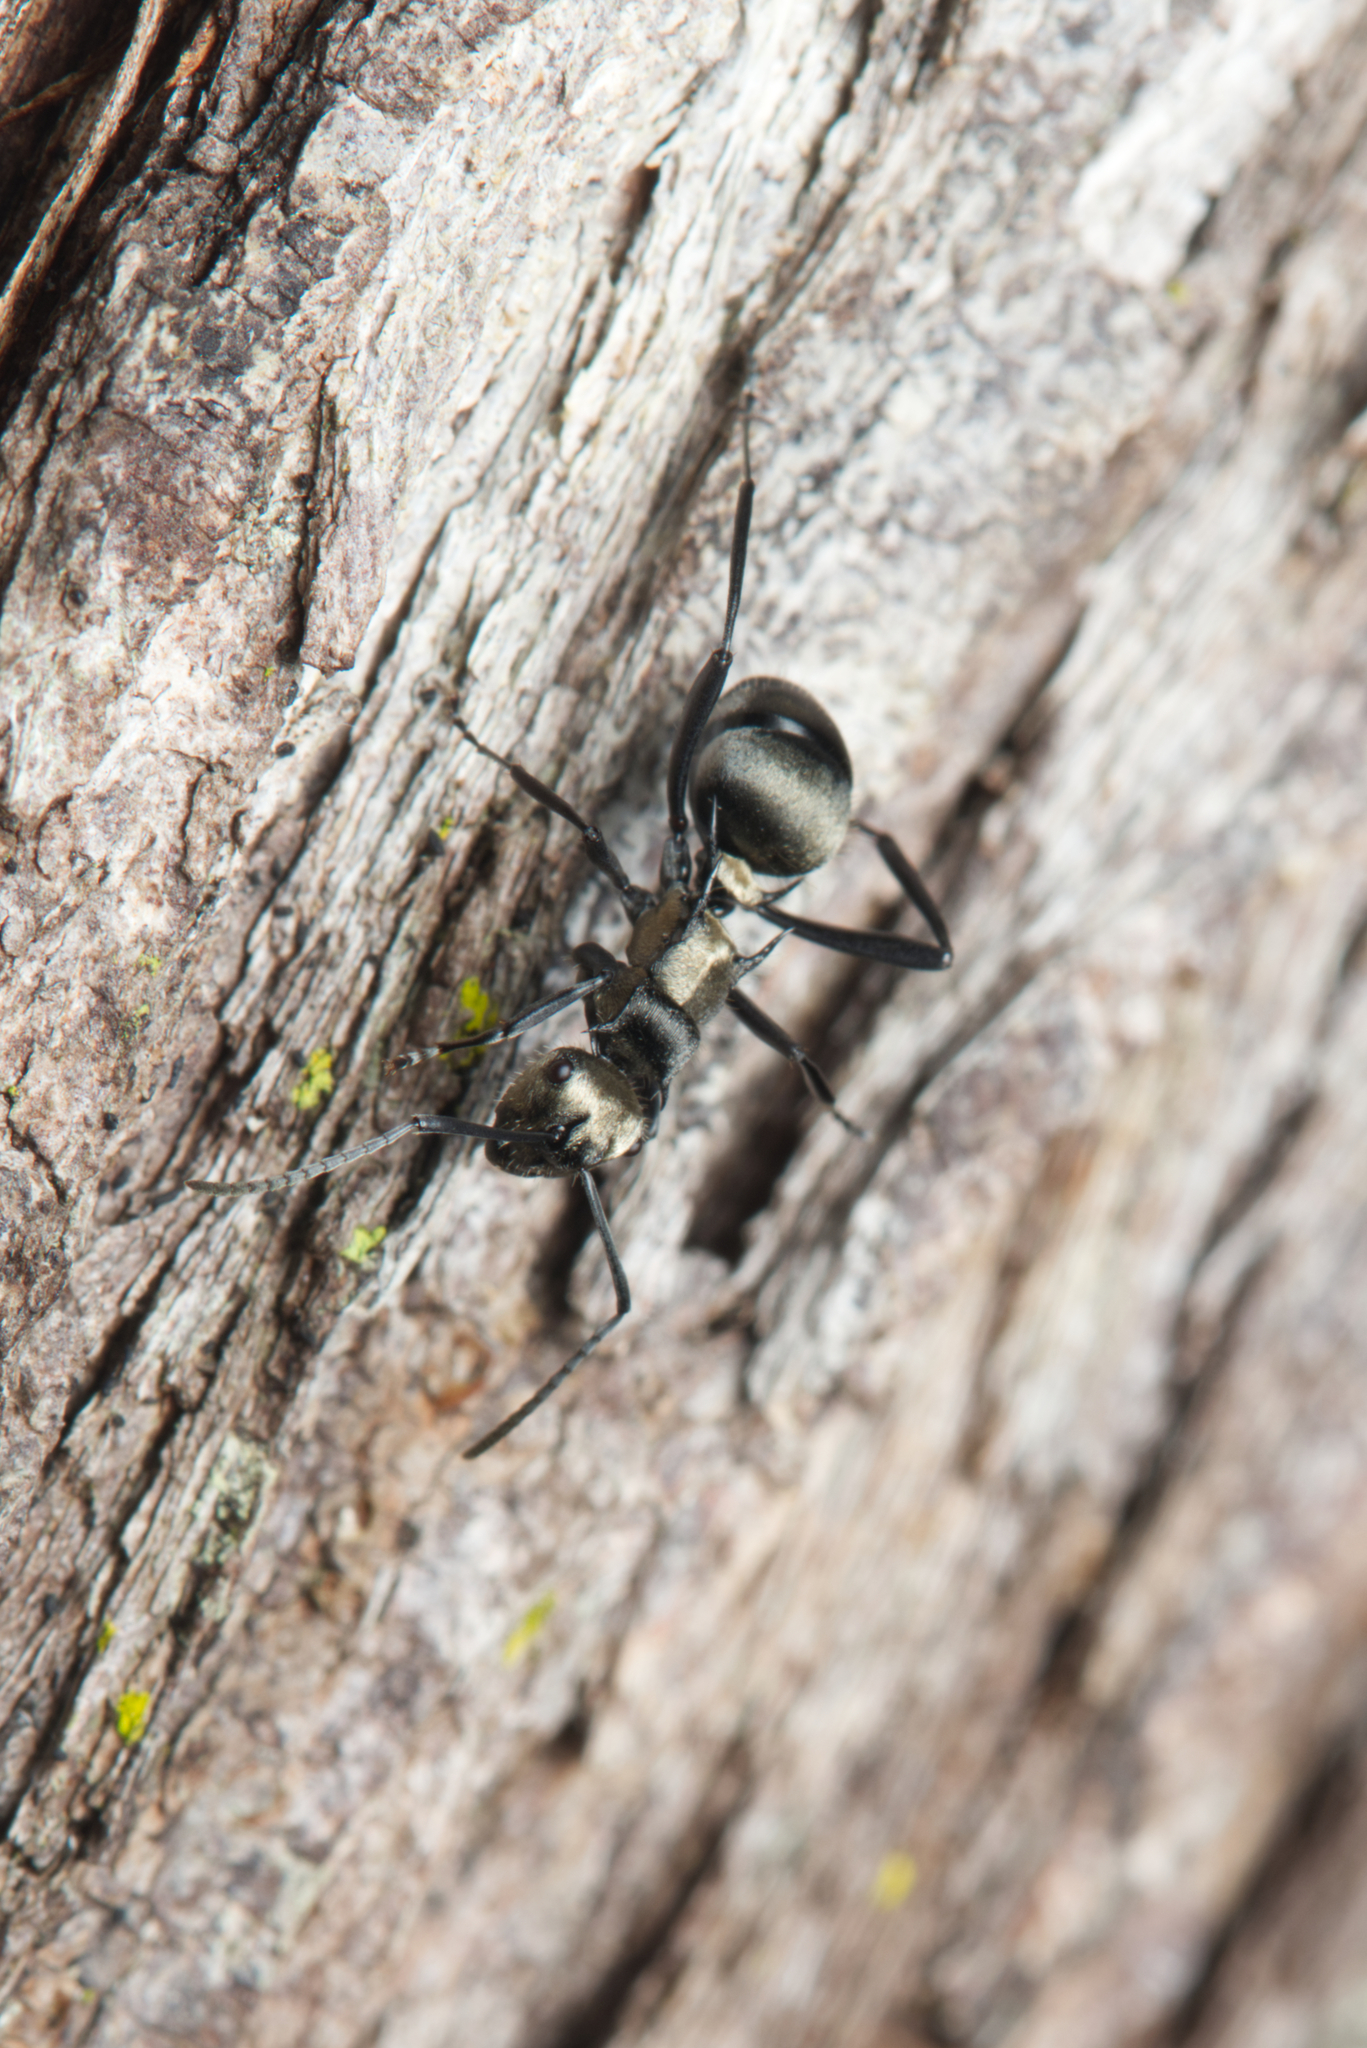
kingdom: Animalia
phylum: Arthropoda
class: Insecta
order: Hymenoptera
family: Formicidae
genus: Polyrhachis
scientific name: Polyrhachis daemeli
